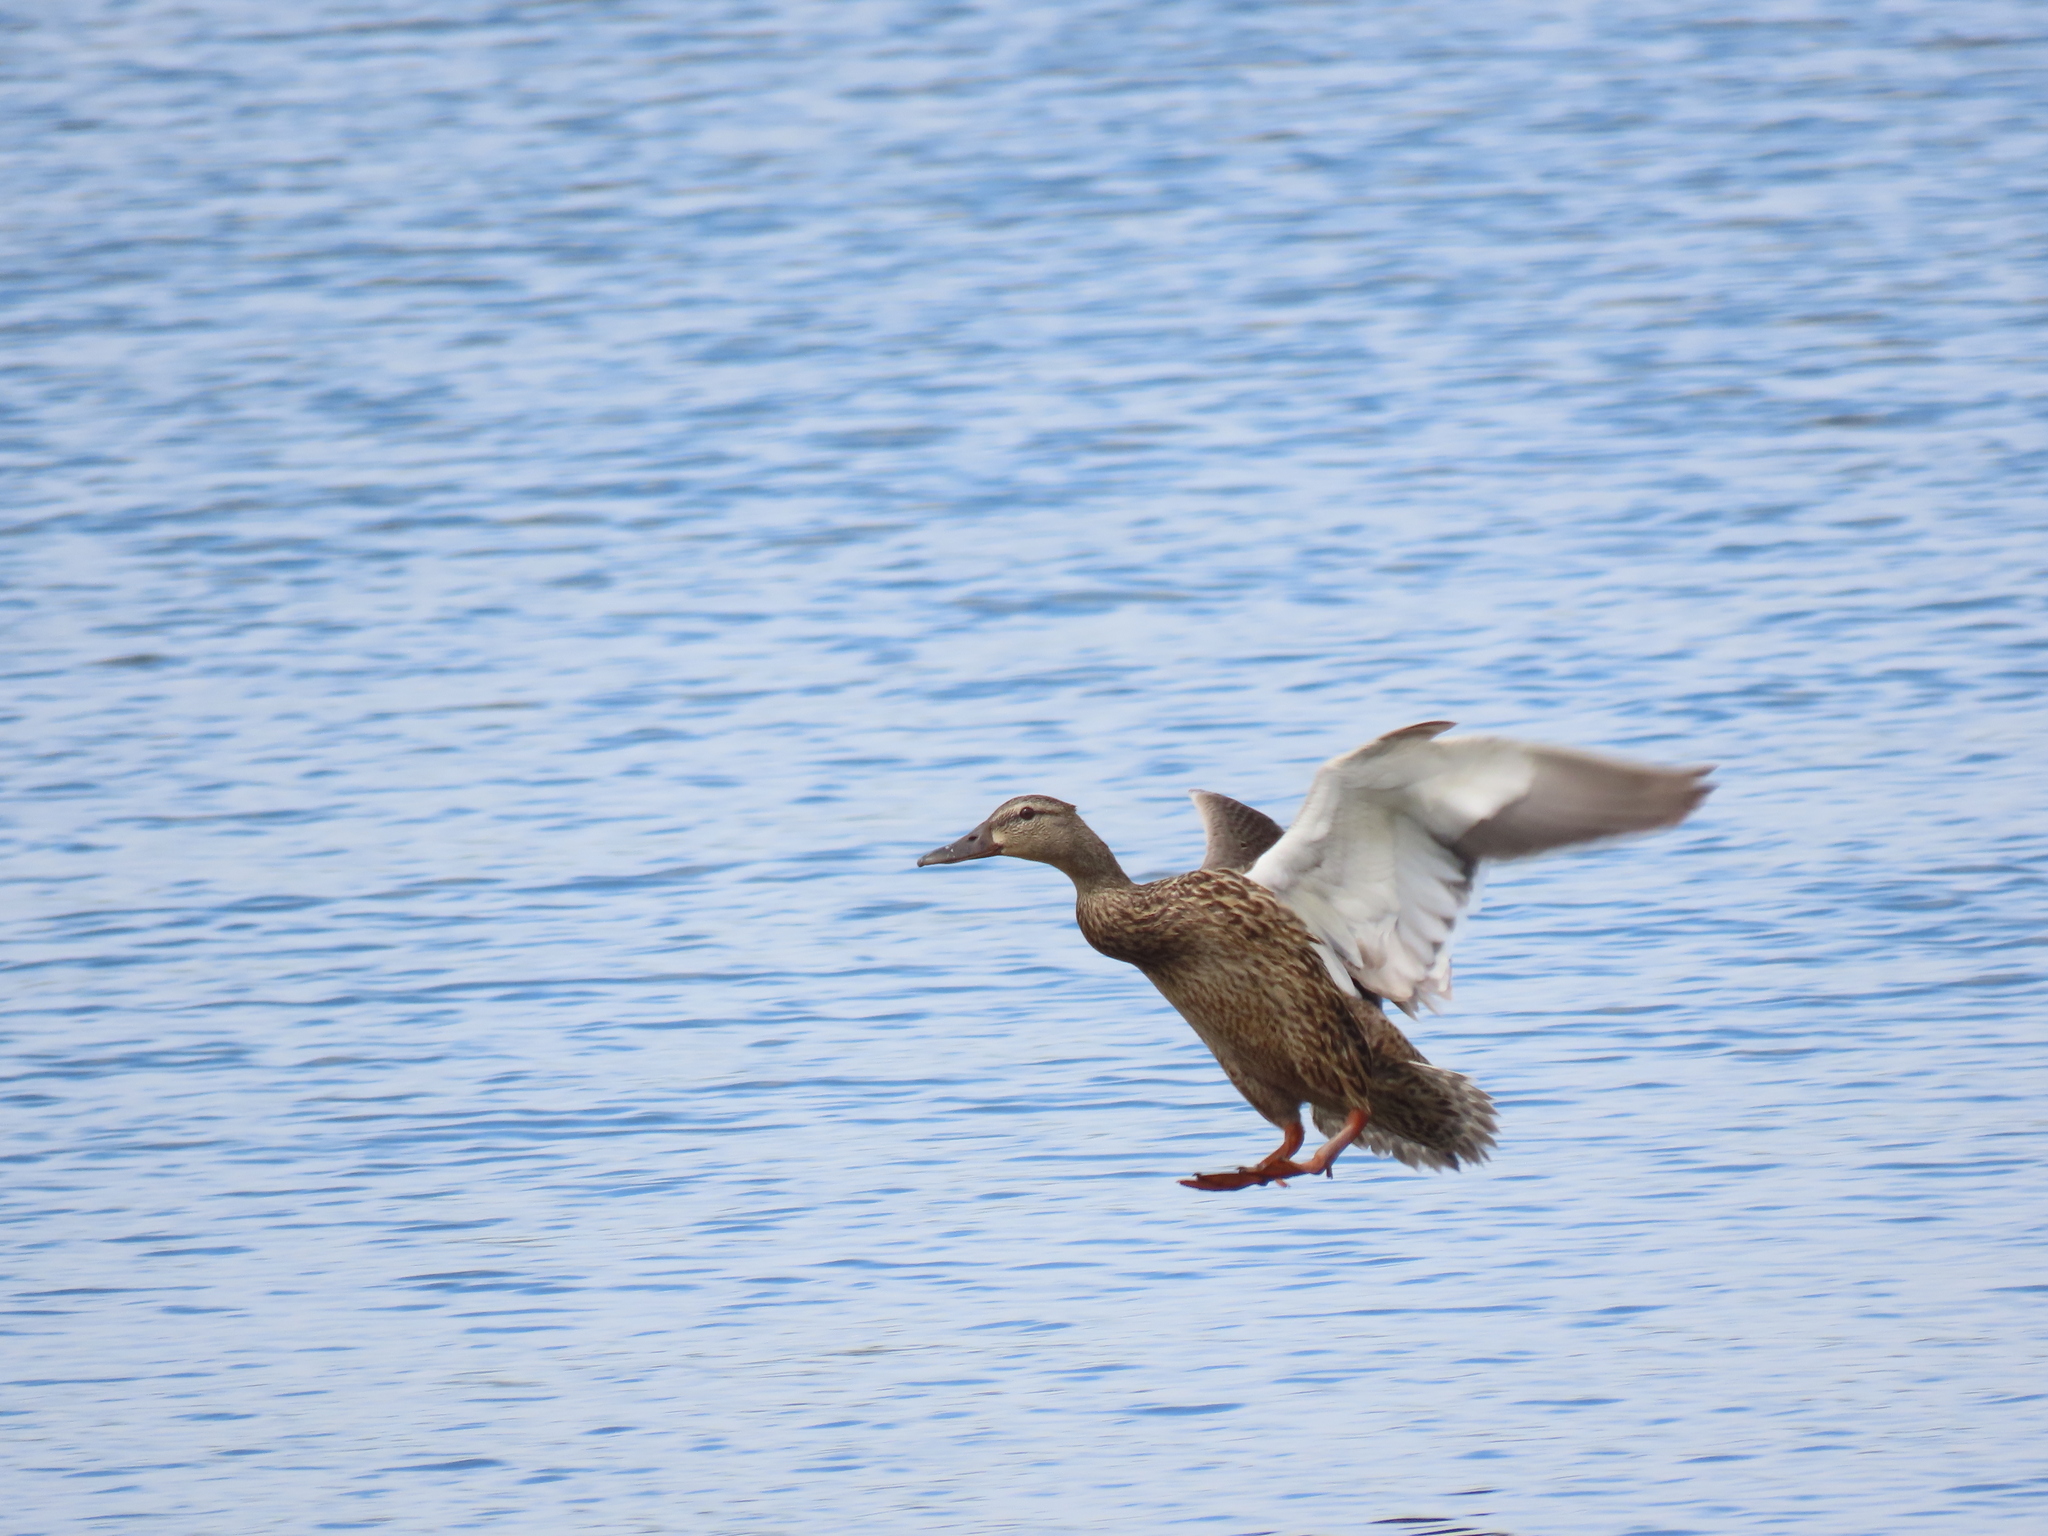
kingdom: Animalia
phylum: Chordata
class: Aves
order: Anseriformes
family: Anatidae
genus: Anas
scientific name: Anas platyrhynchos
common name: Mallard
